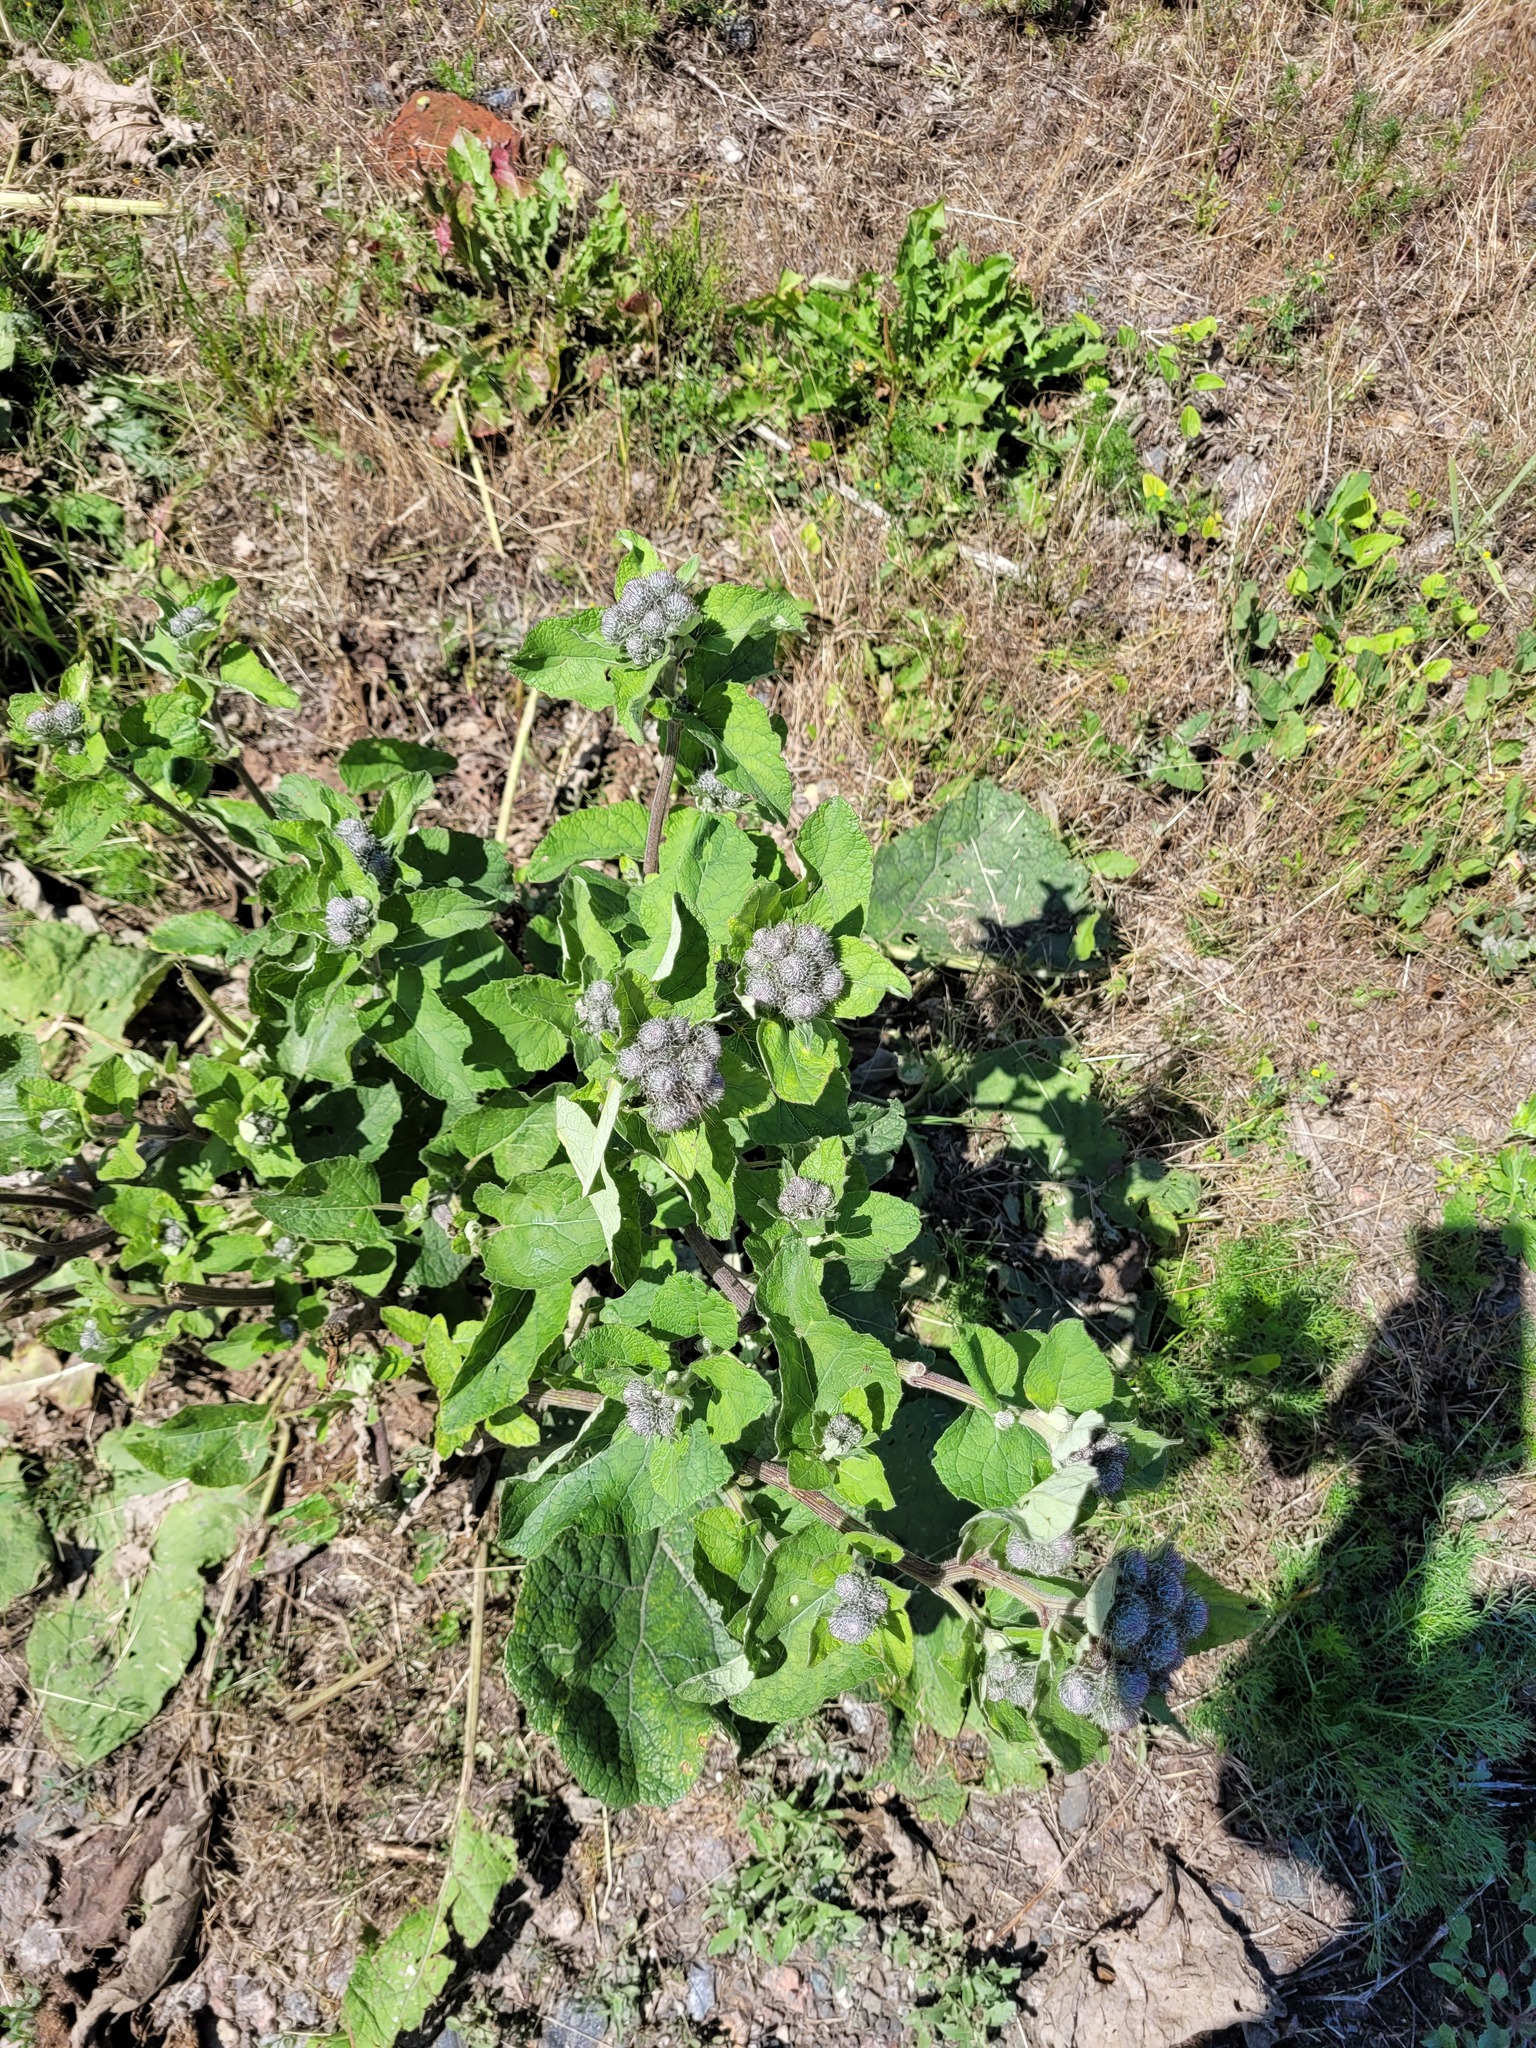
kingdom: Plantae
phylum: Tracheophyta
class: Magnoliopsida
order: Asterales
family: Asteraceae
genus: Arctium
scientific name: Arctium tomentosum
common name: Woolly burdock
